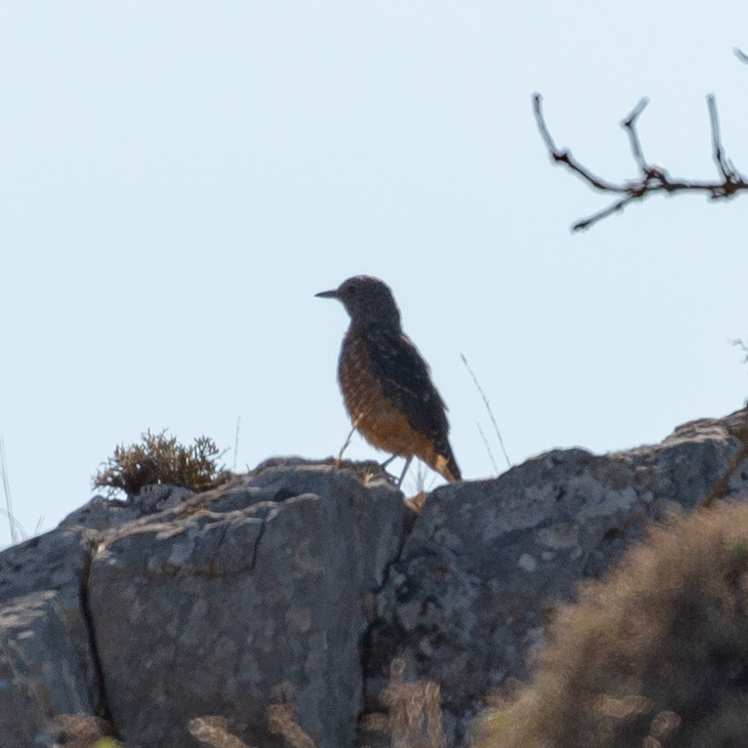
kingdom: Animalia
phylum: Chordata
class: Aves
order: Passeriformes
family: Muscicapidae
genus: Monticola
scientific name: Monticola saxatilis
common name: Rufous-tailed rock thrush
